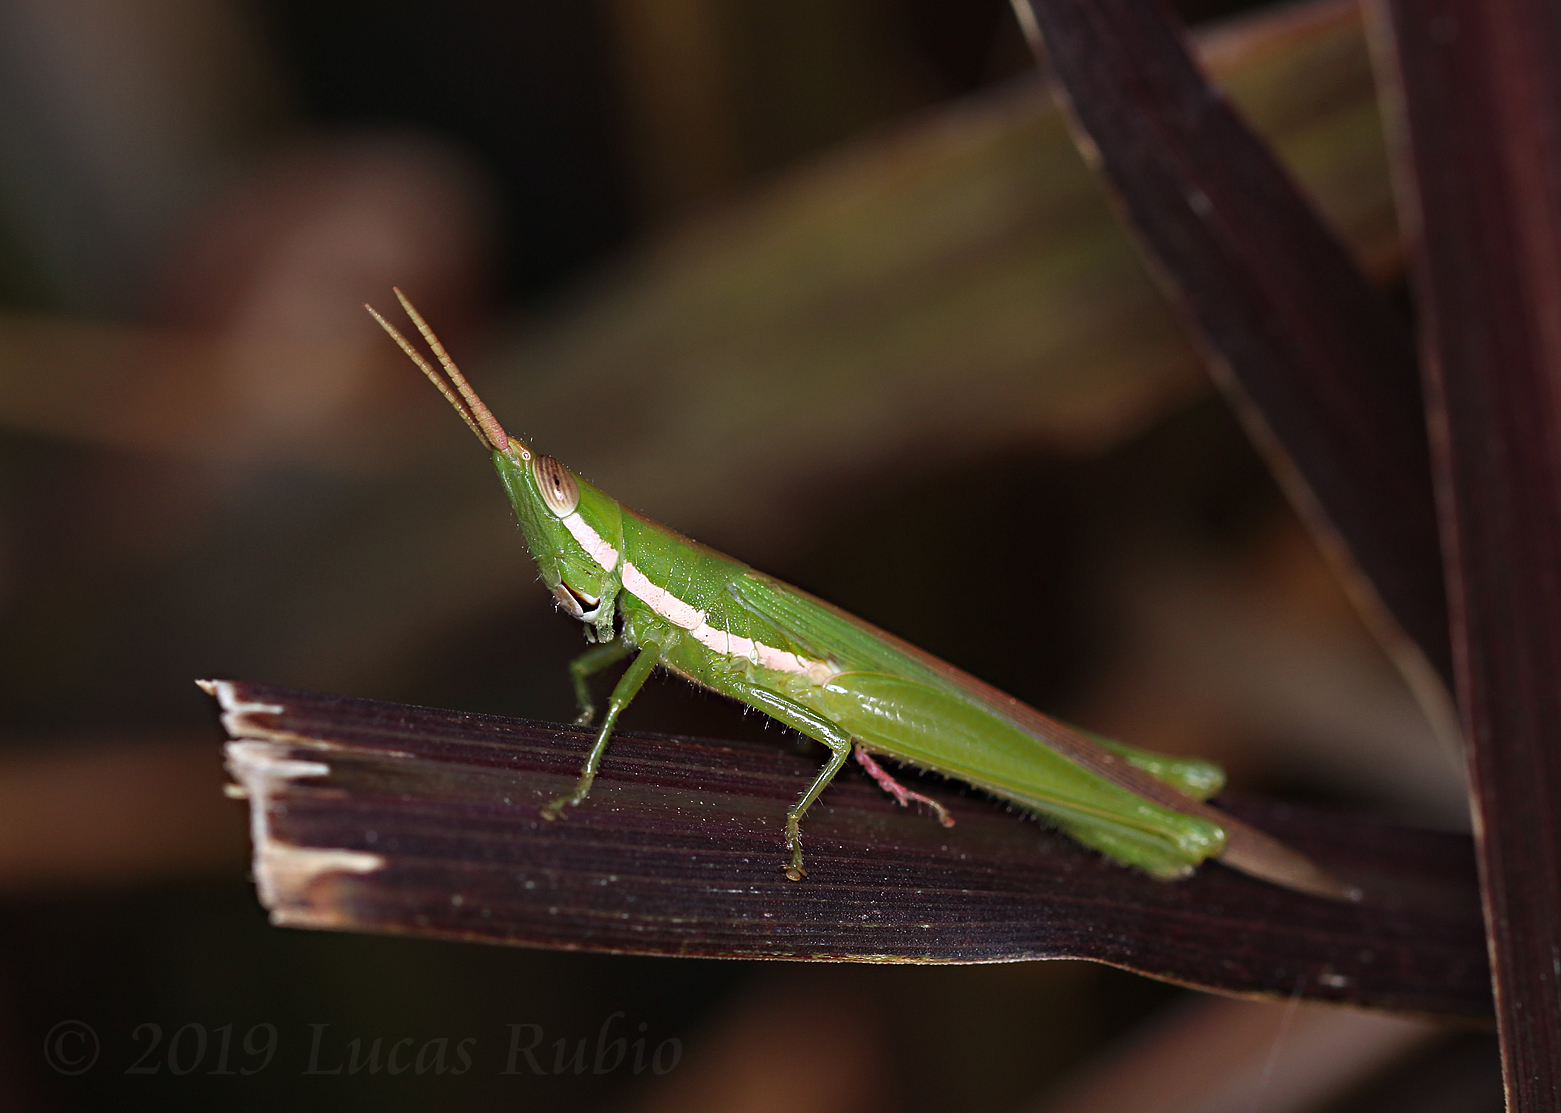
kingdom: Animalia
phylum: Arthropoda
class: Insecta
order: Orthoptera
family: Acrididae
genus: Tucayaca
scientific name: Tucayaca gracilis
